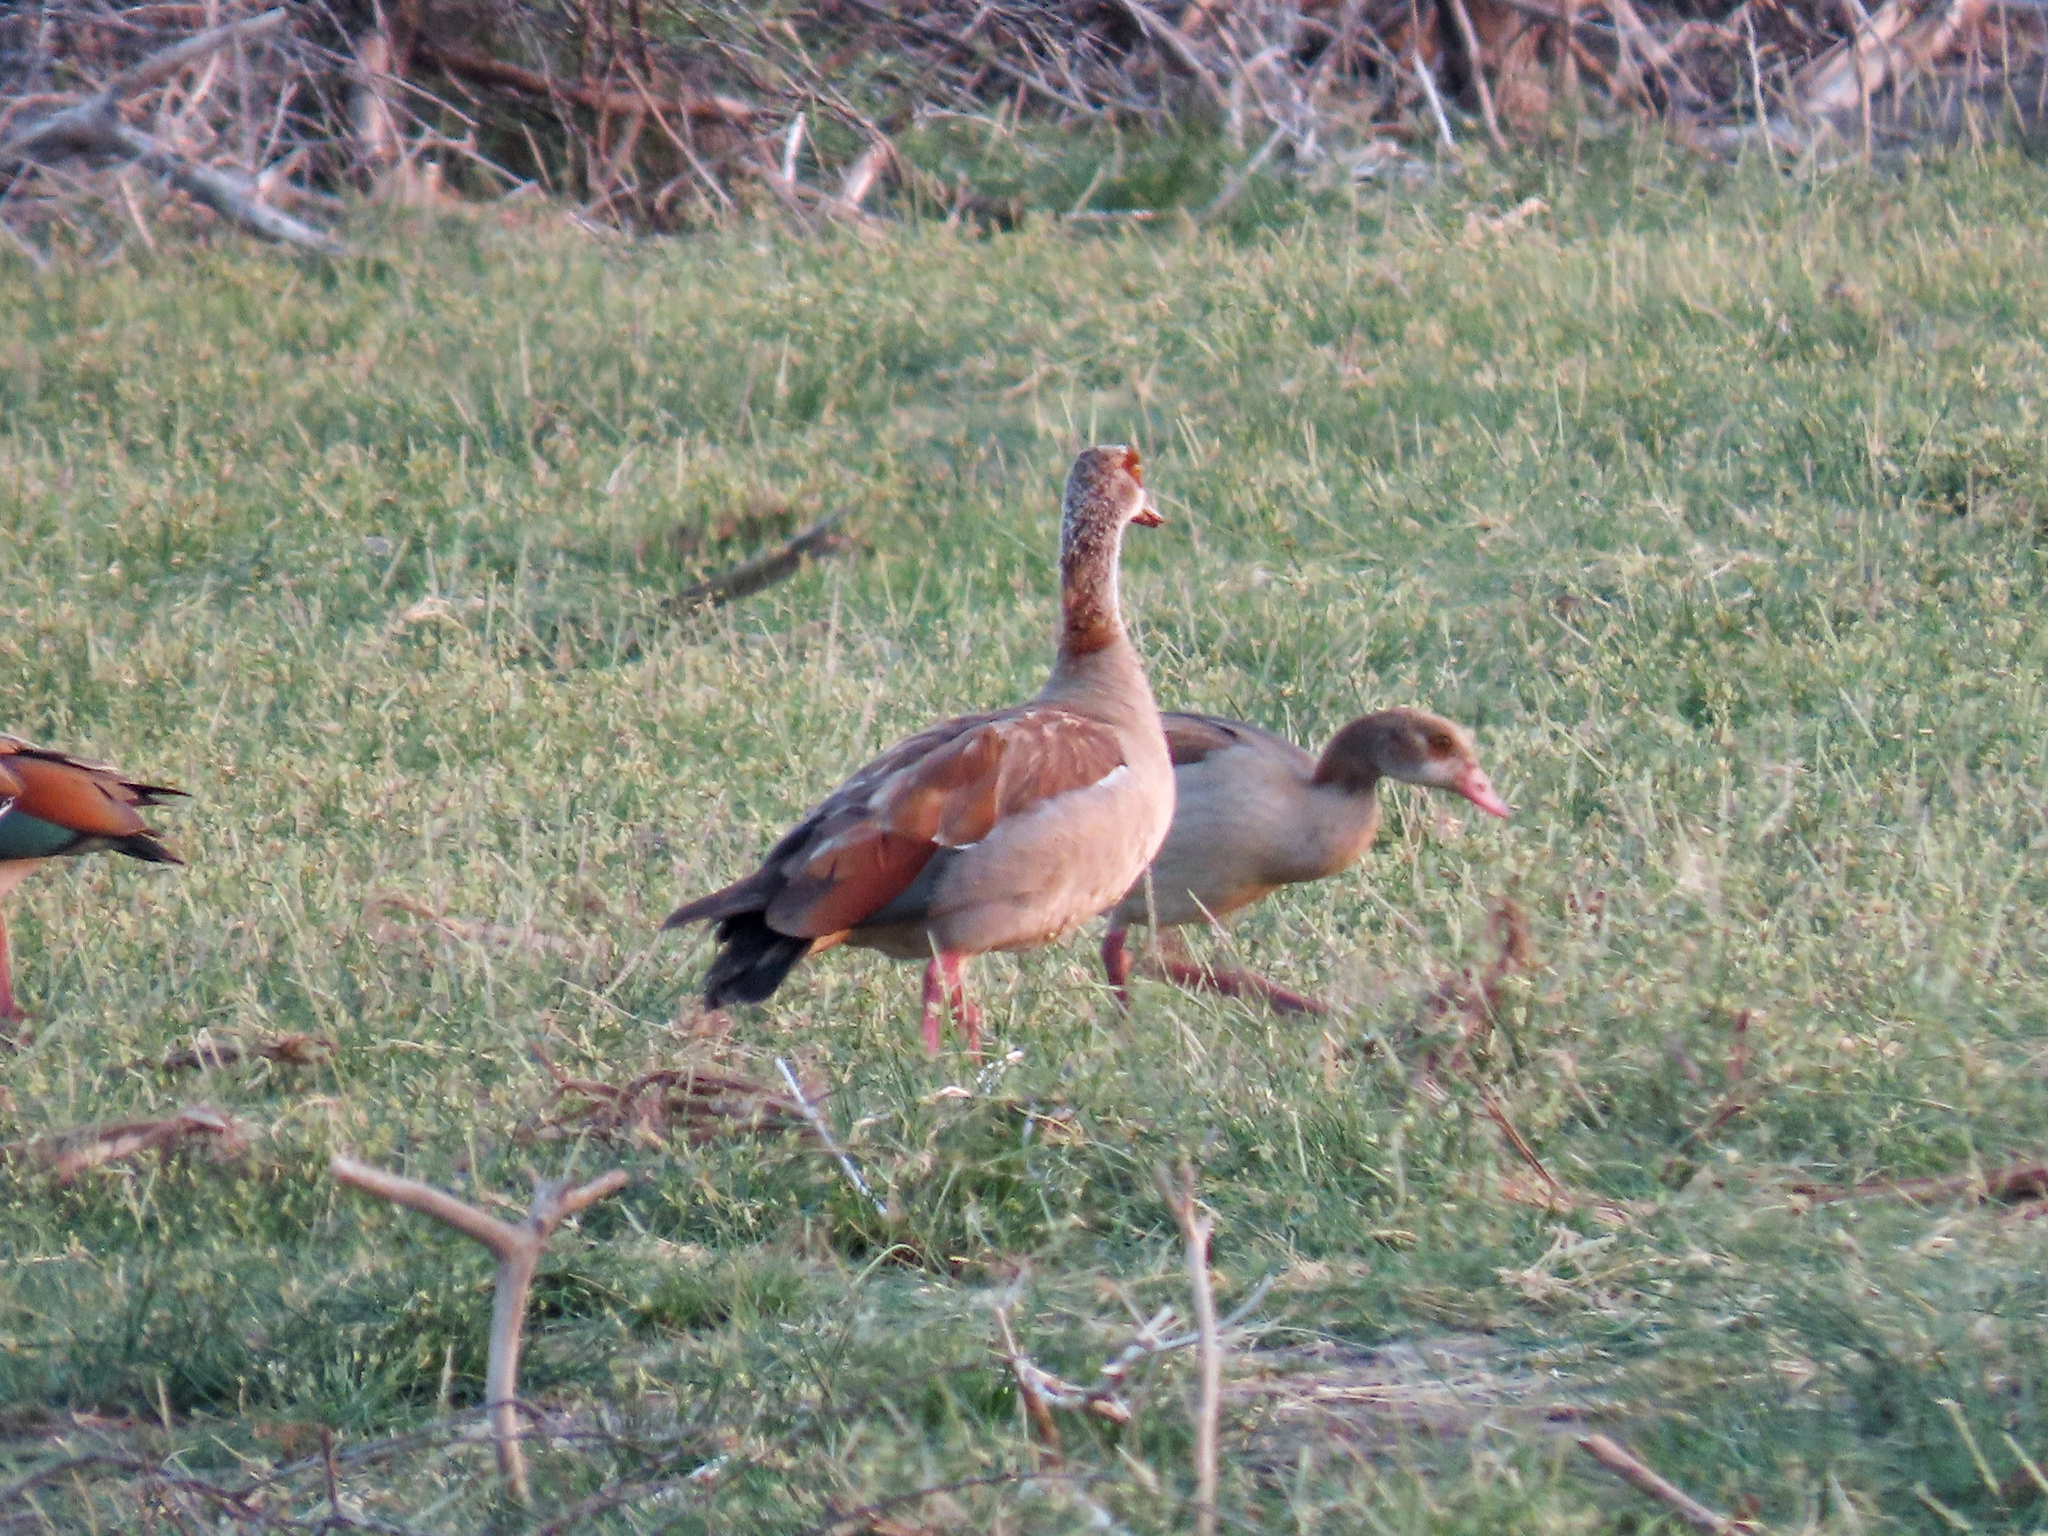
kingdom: Animalia
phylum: Chordata
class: Aves
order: Anseriformes
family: Anatidae
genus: Alopochen
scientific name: Alopochen aegyptiaca
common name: Egyptian goose
